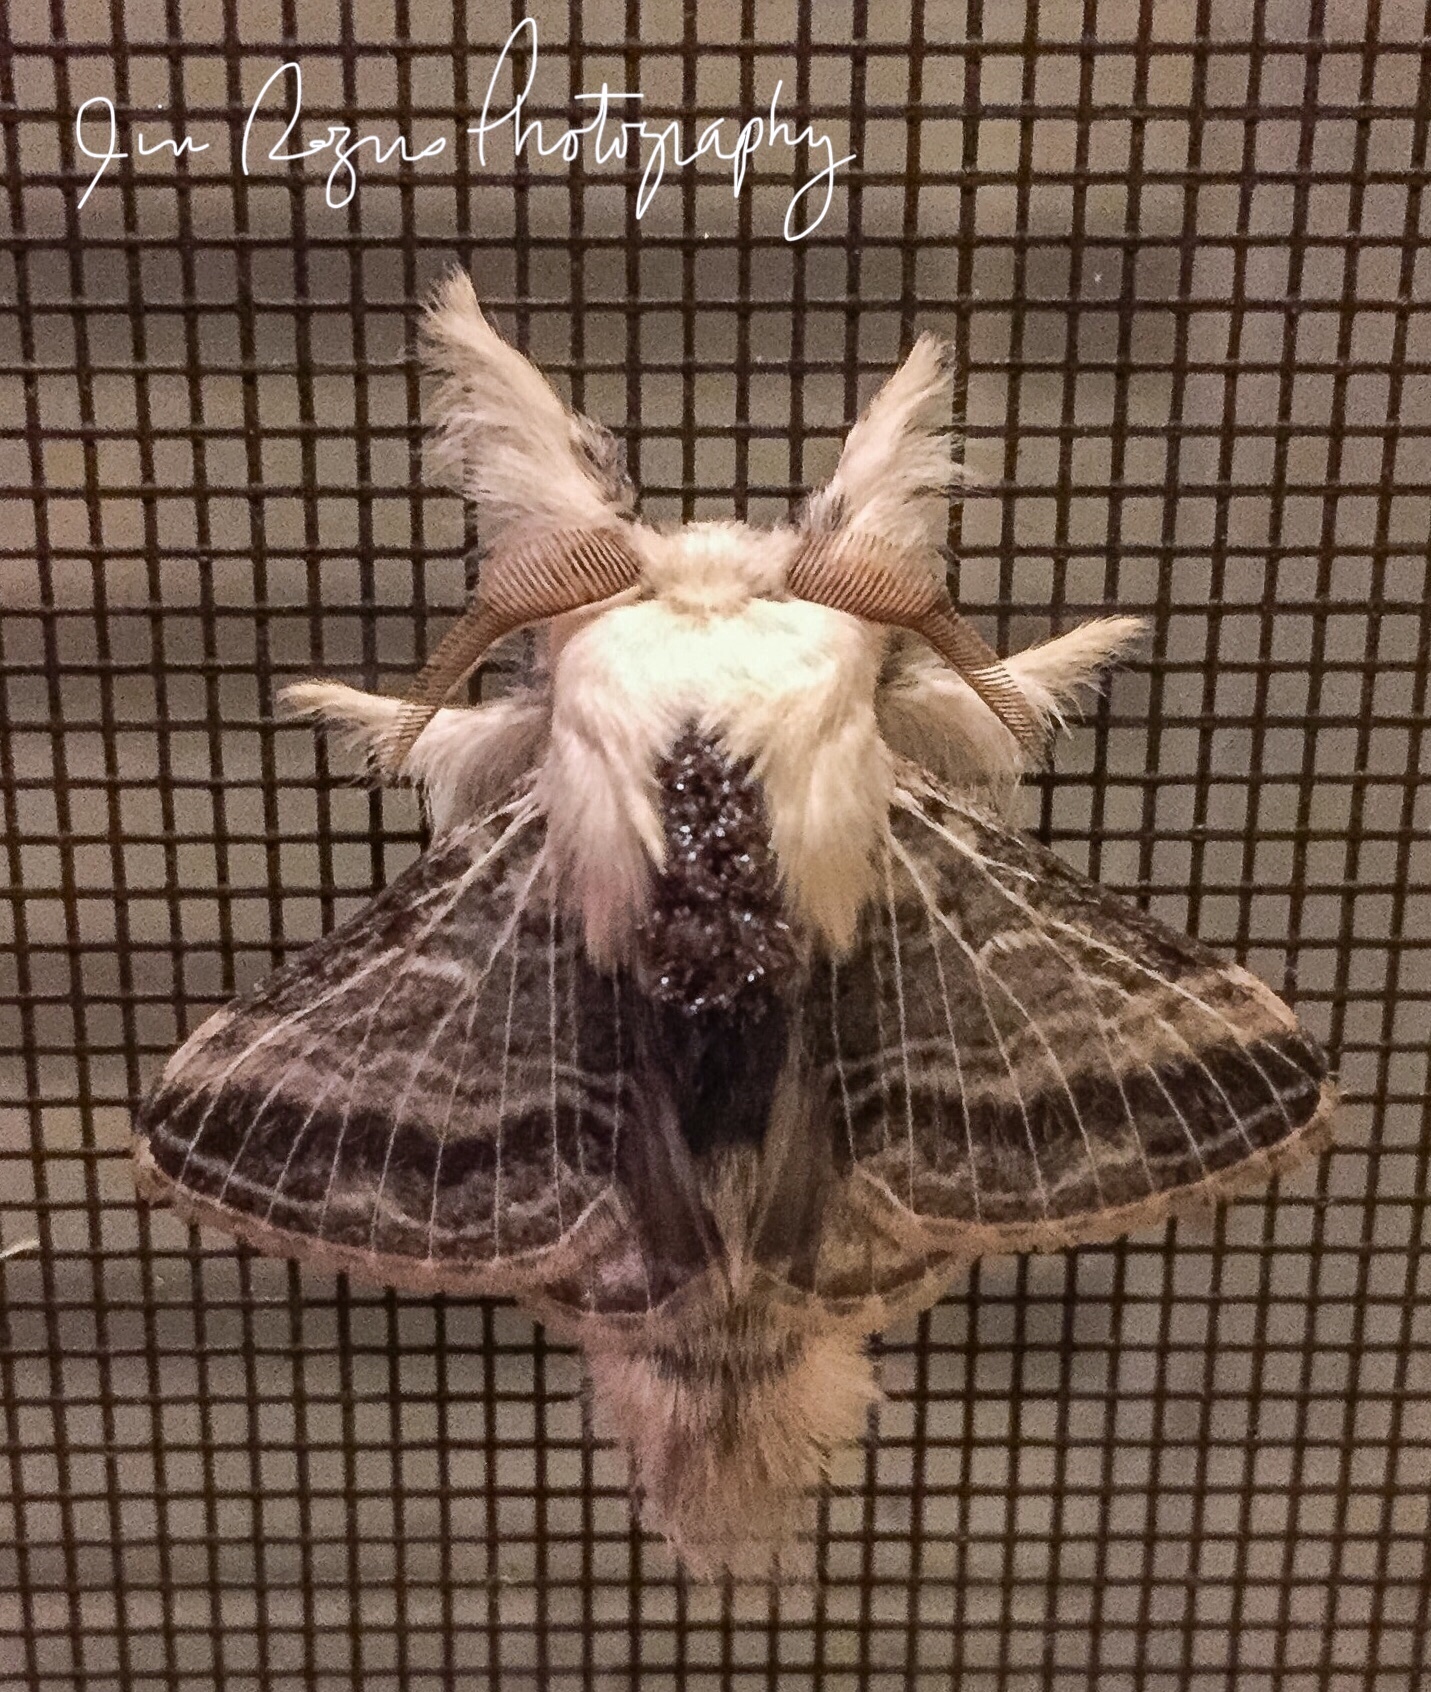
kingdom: Animalia
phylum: Arthropoda
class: Insecta
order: Lepidoptera
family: Lasiocampidae
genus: Tolype
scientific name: Tolype velleda
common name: Large tolype moth
